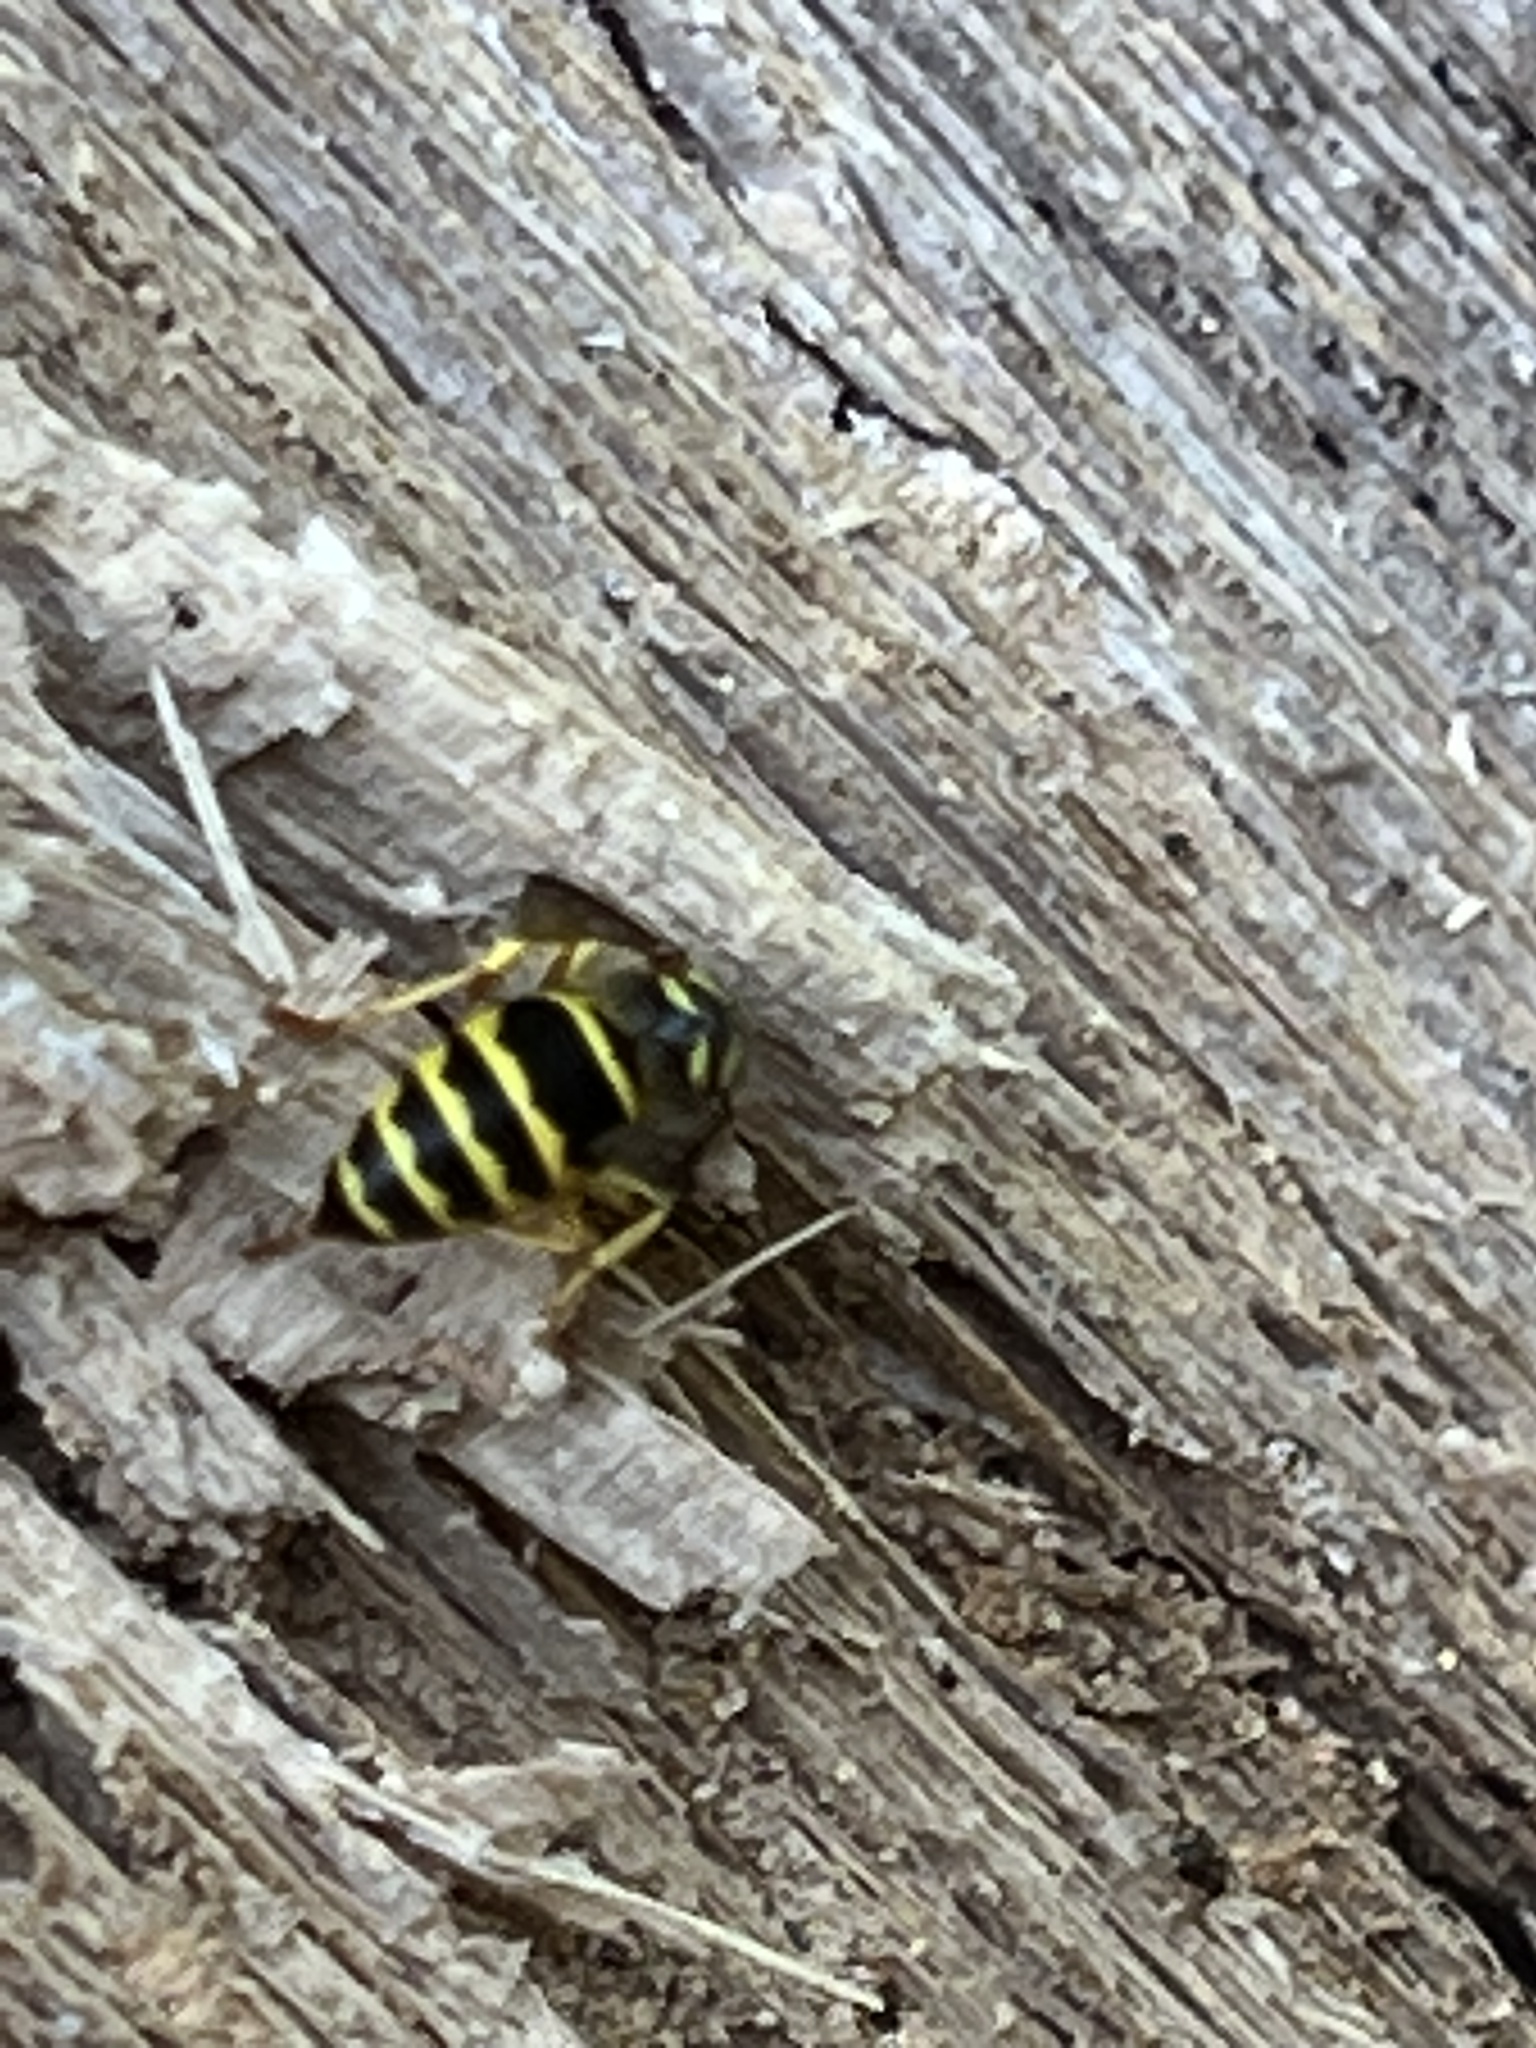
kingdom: Animalia
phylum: Arthropoda
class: Insecta
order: Hymenoptera
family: Vespidae
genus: Vespula
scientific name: Vespula maculifrons
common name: Eastern yellowjacket
